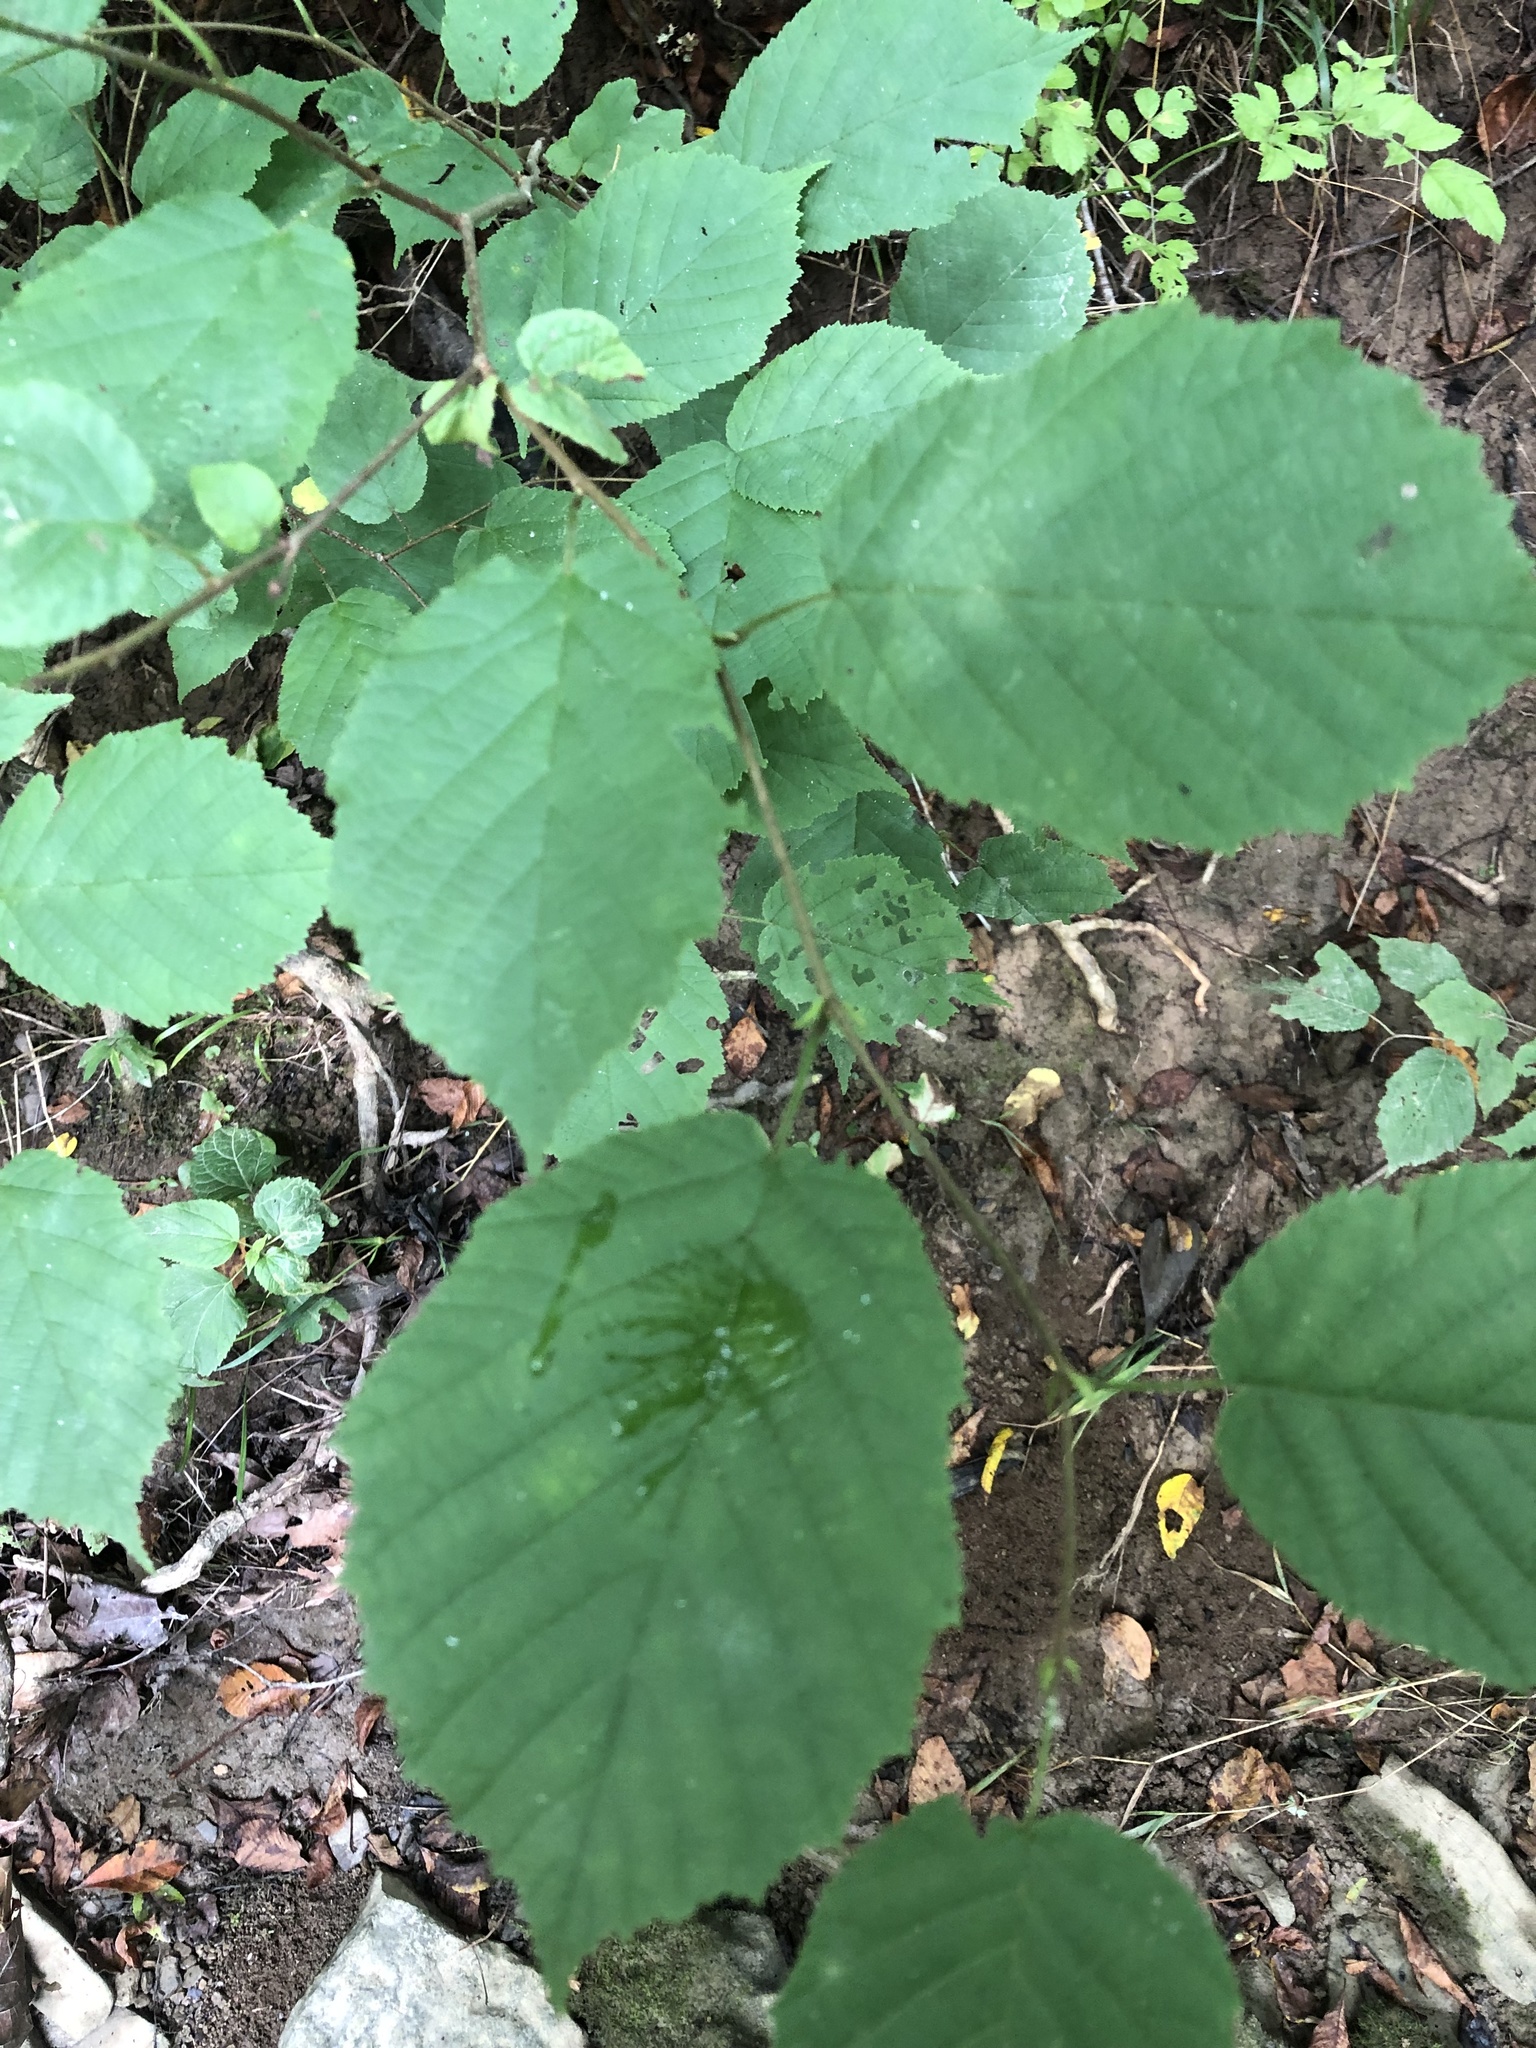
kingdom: Plantae
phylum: Tracheophyta
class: Magnoliopsida
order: Fagales
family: Betulaceae
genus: Corylus
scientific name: Corylus americana
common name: American hazel
